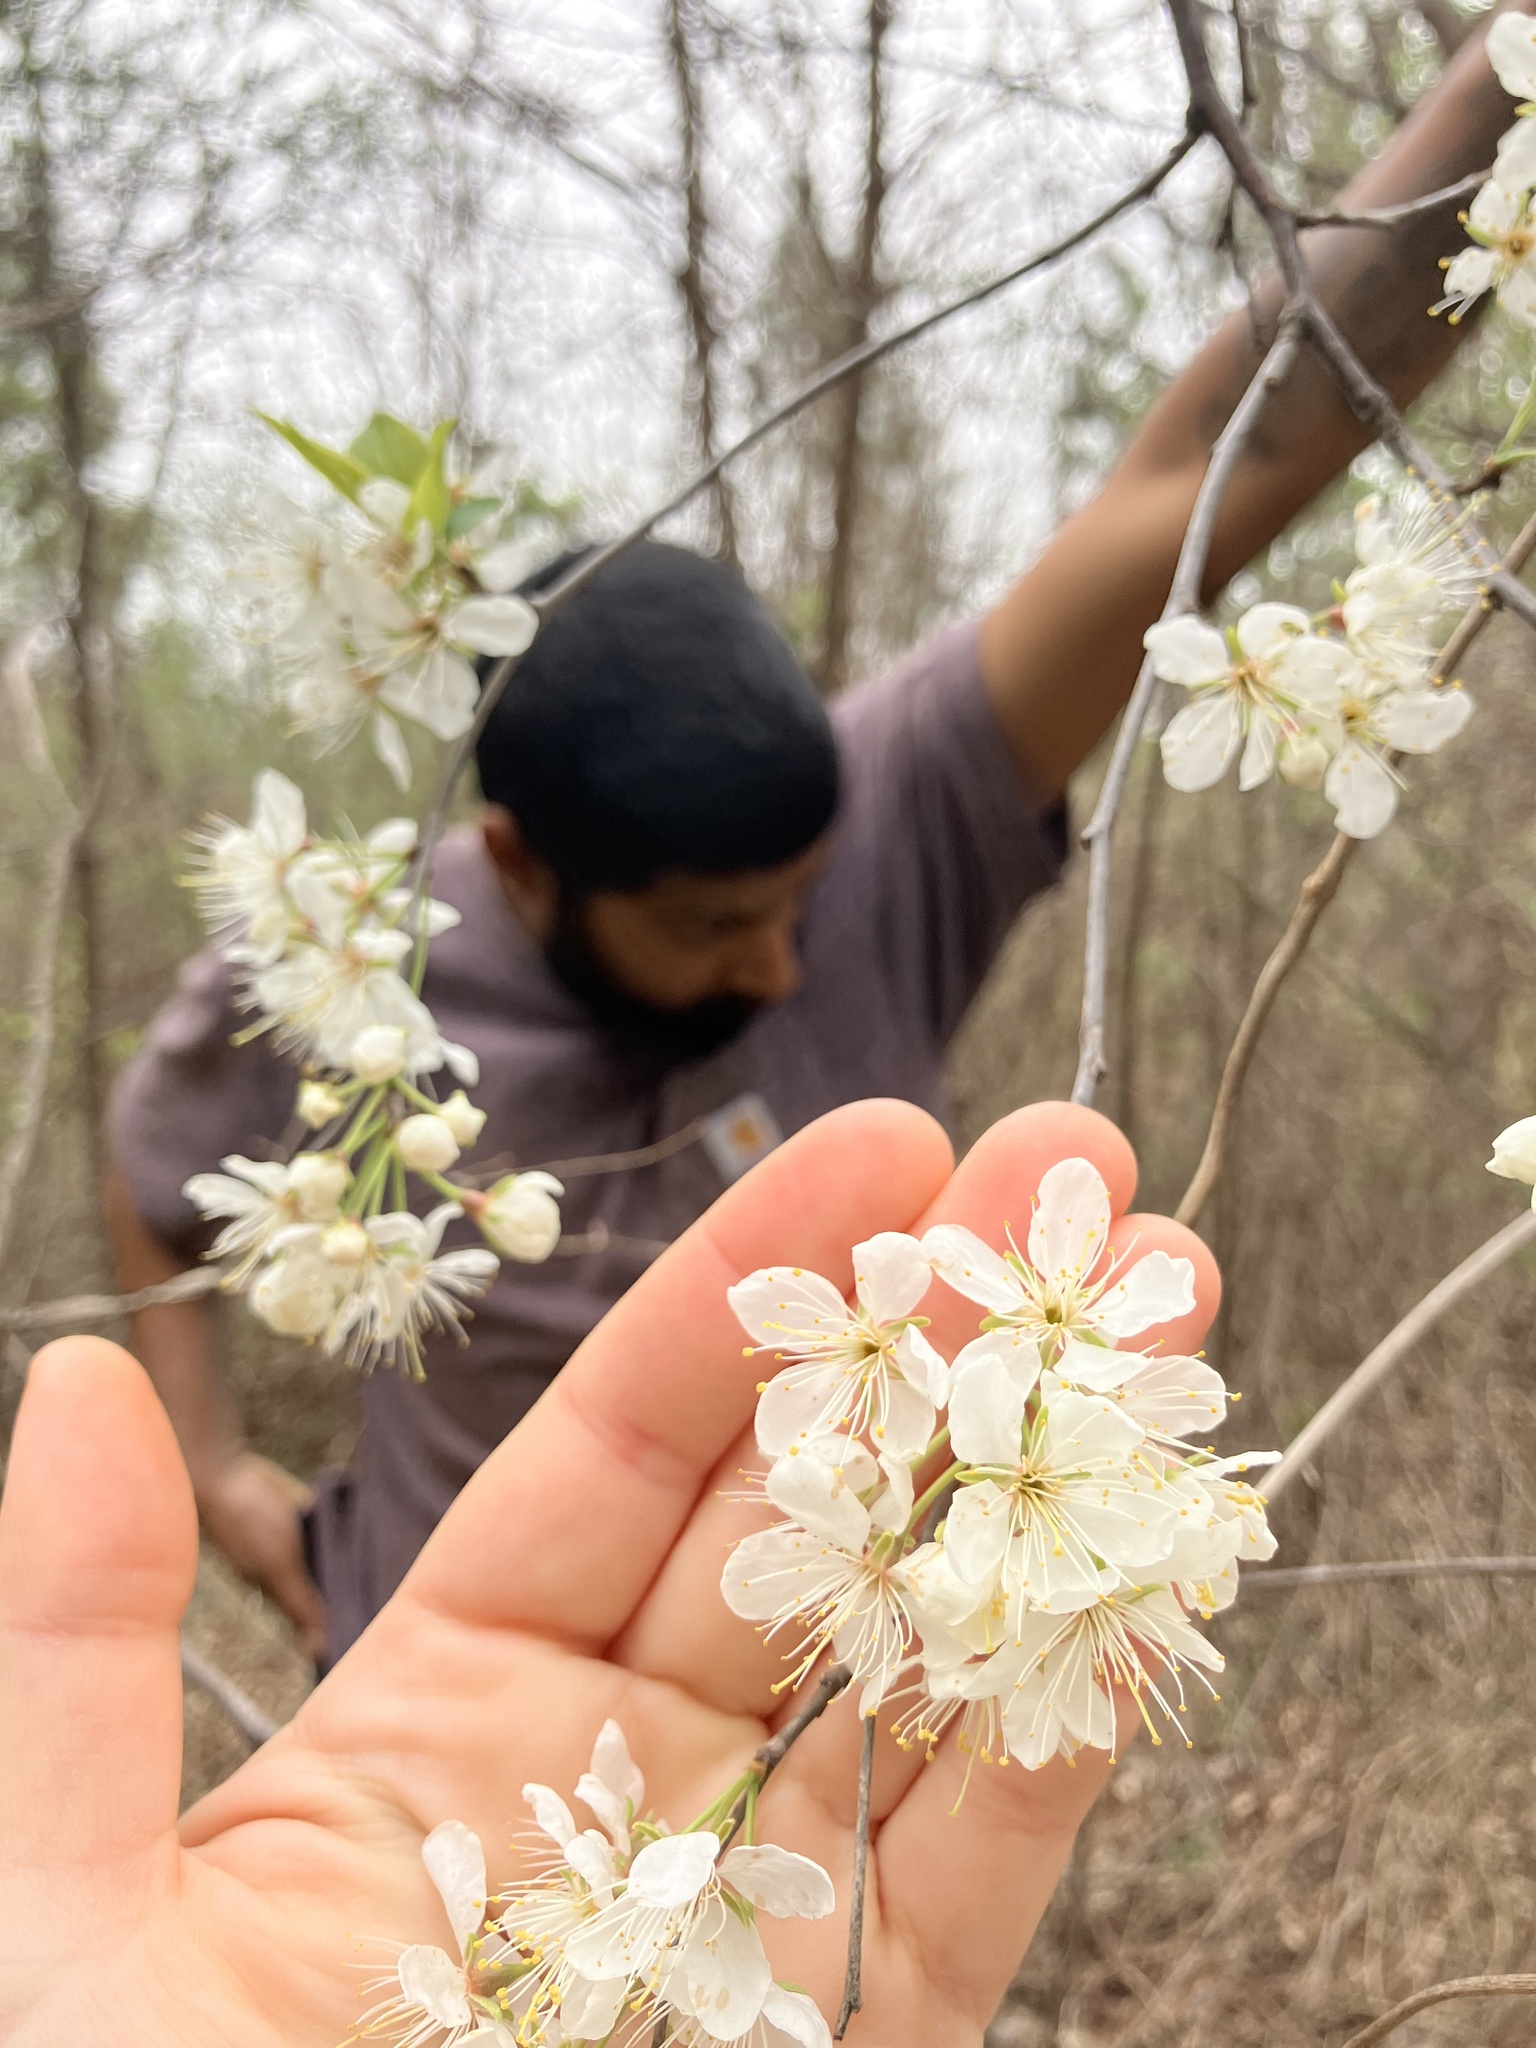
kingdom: Plantae
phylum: Tracheophyta
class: Magnoliopsida
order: Rosales
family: Rosaceae
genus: Prunus
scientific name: Prunus americana
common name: American plum
